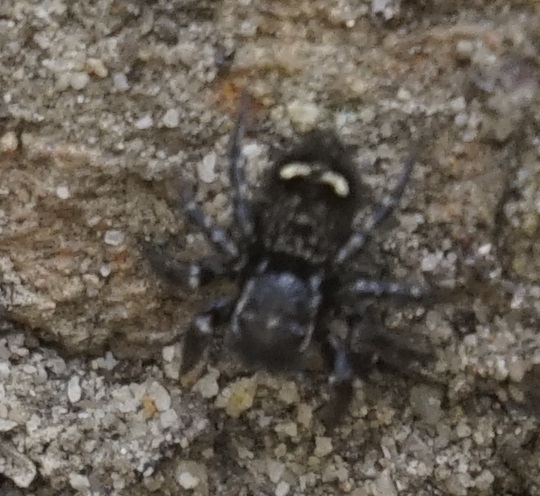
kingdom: Animalia
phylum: Arthropoda
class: Arachnida
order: Araneae
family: Salticidae
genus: Saitis
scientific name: Saitis virgatus
